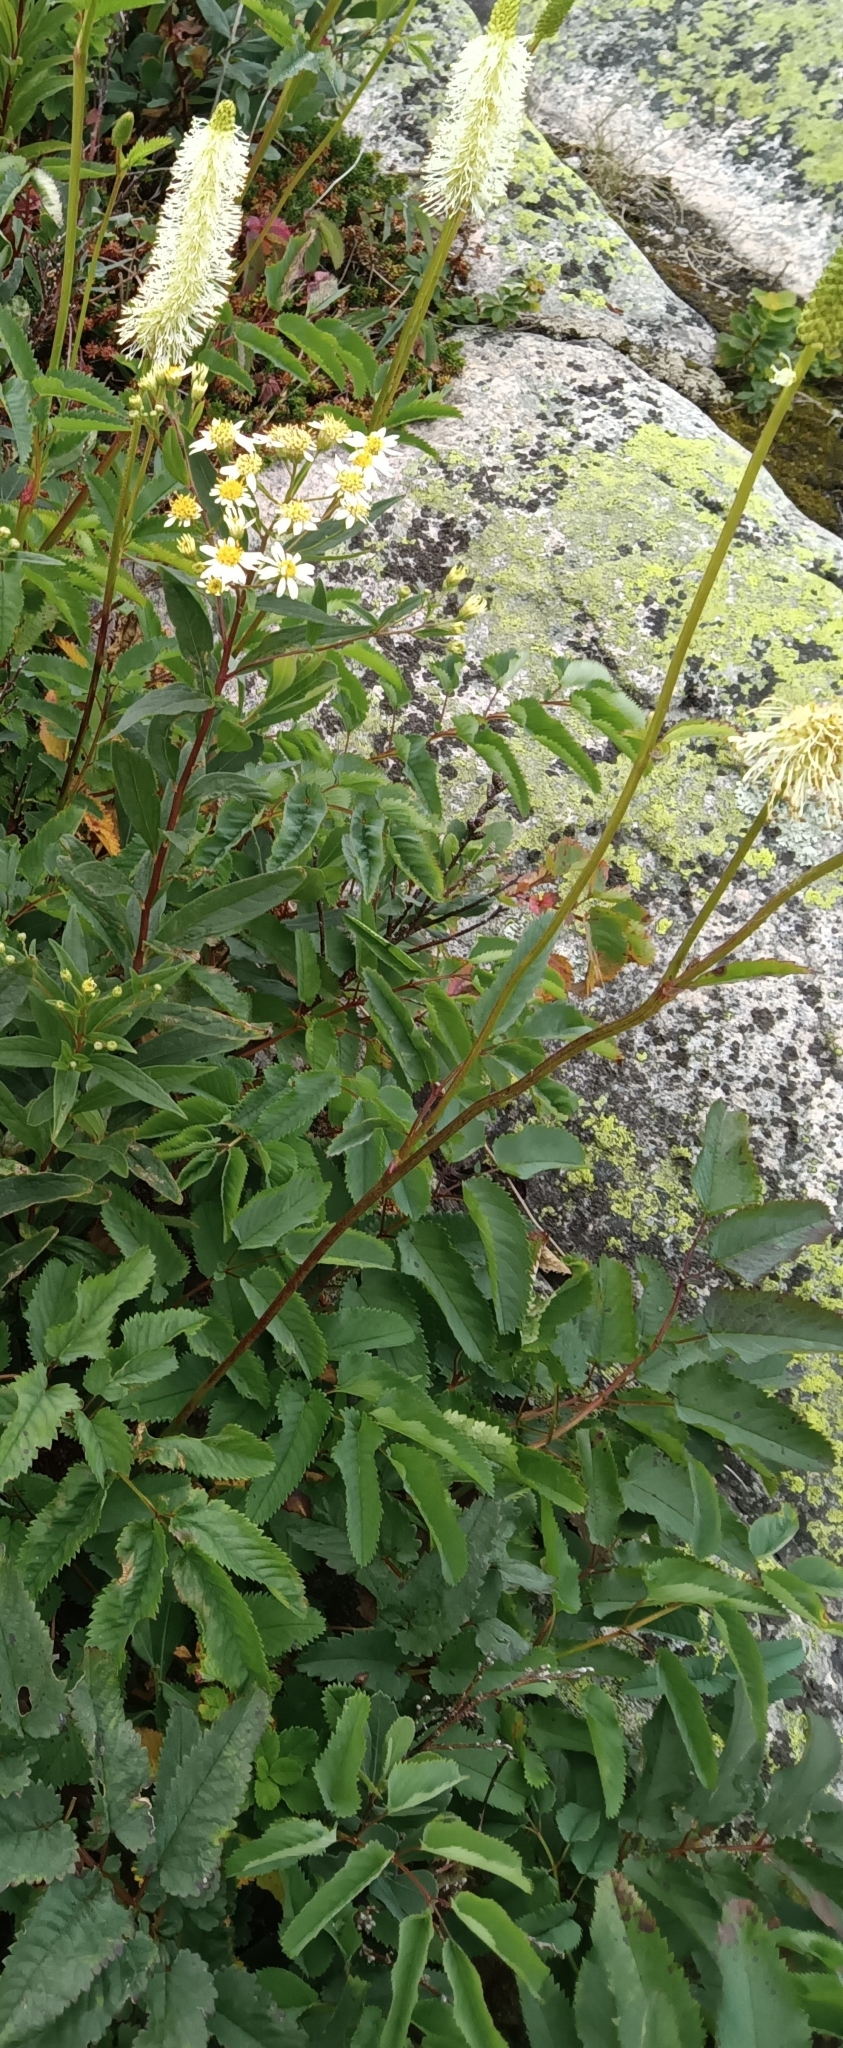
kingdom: Plantae
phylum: Tracheophyta
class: Magnoliopsida
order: Rosales
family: Rosaceae
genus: Sanguisorba
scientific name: Sanguisorba canadensis
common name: White burnet
